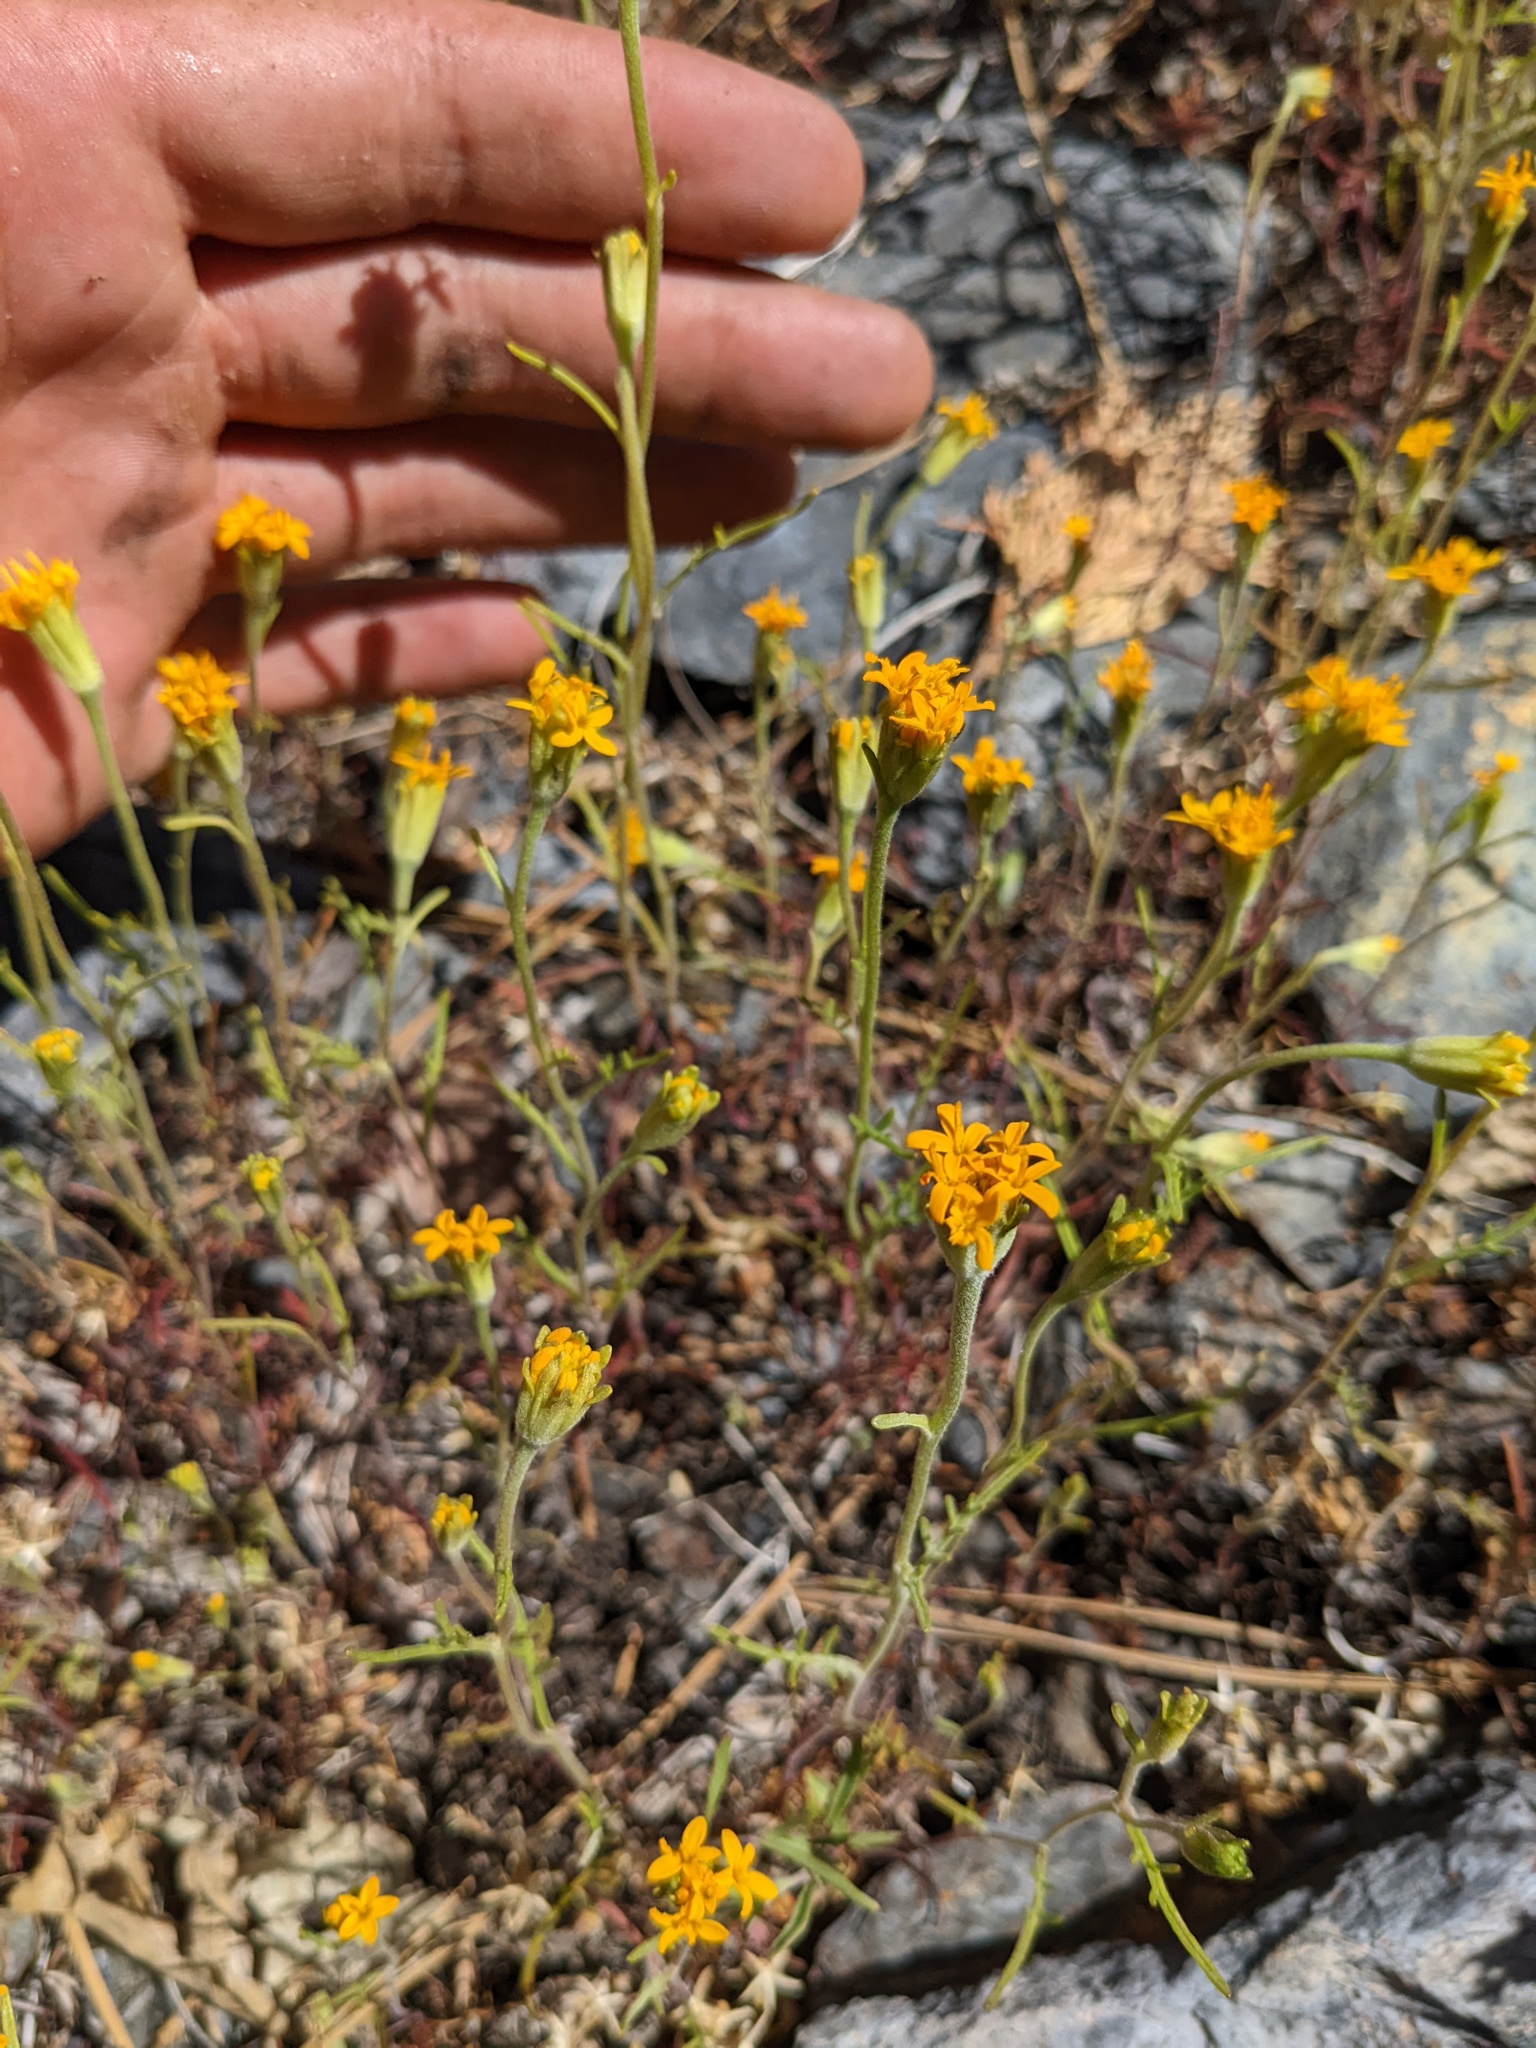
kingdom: Plantae
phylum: Tracheophyta
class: Magnoliopsida
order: Asterales
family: Asteraceae
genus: Chaenactis
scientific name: Chaenactis glabriuscula
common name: Yellow pincushion
